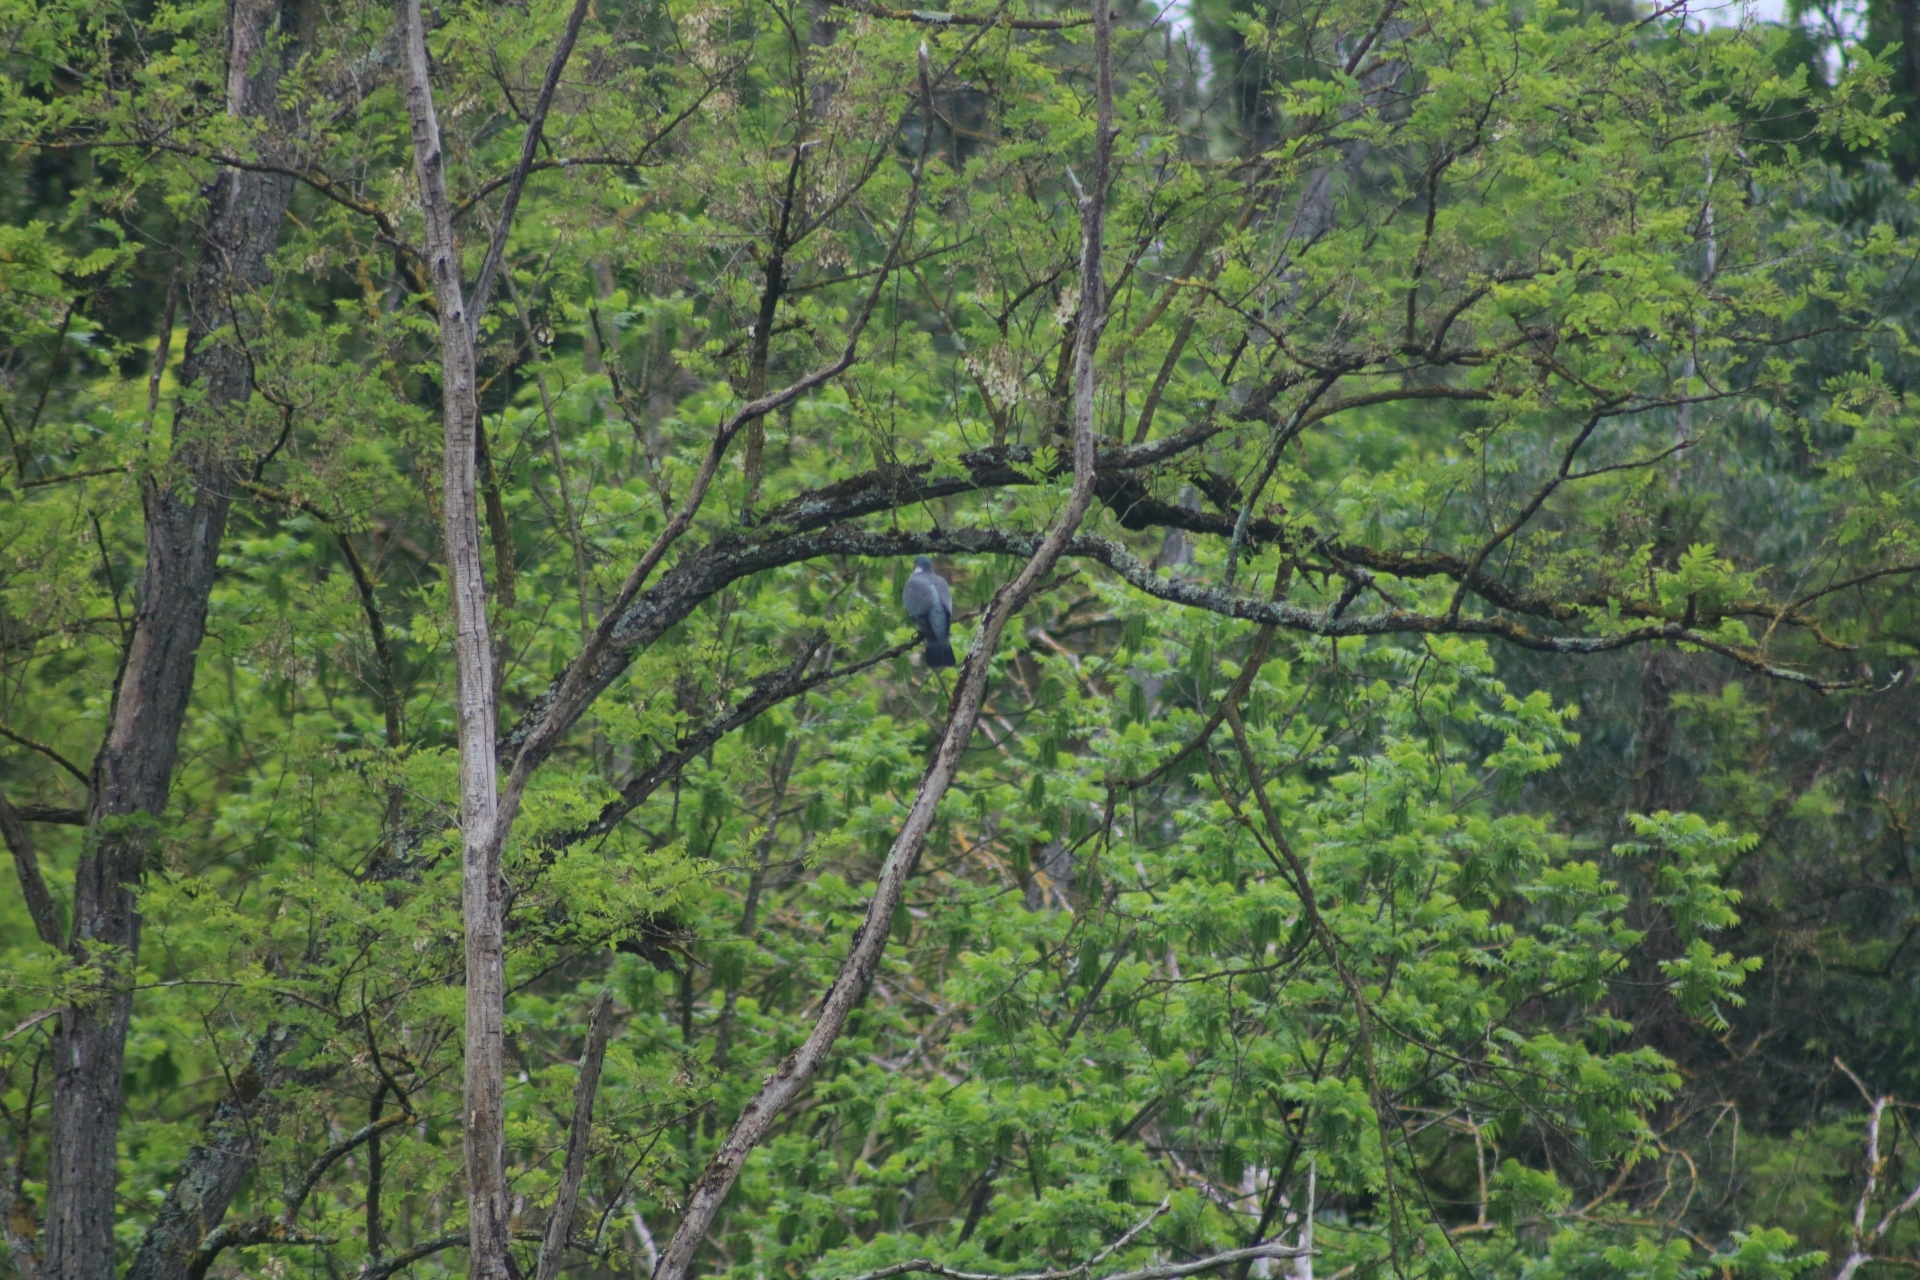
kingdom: Animalia
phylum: Chordata
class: Aves
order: Columbiformes
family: Columbidae
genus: Columba
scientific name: Columba palumbus
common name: Common wood pigeon
